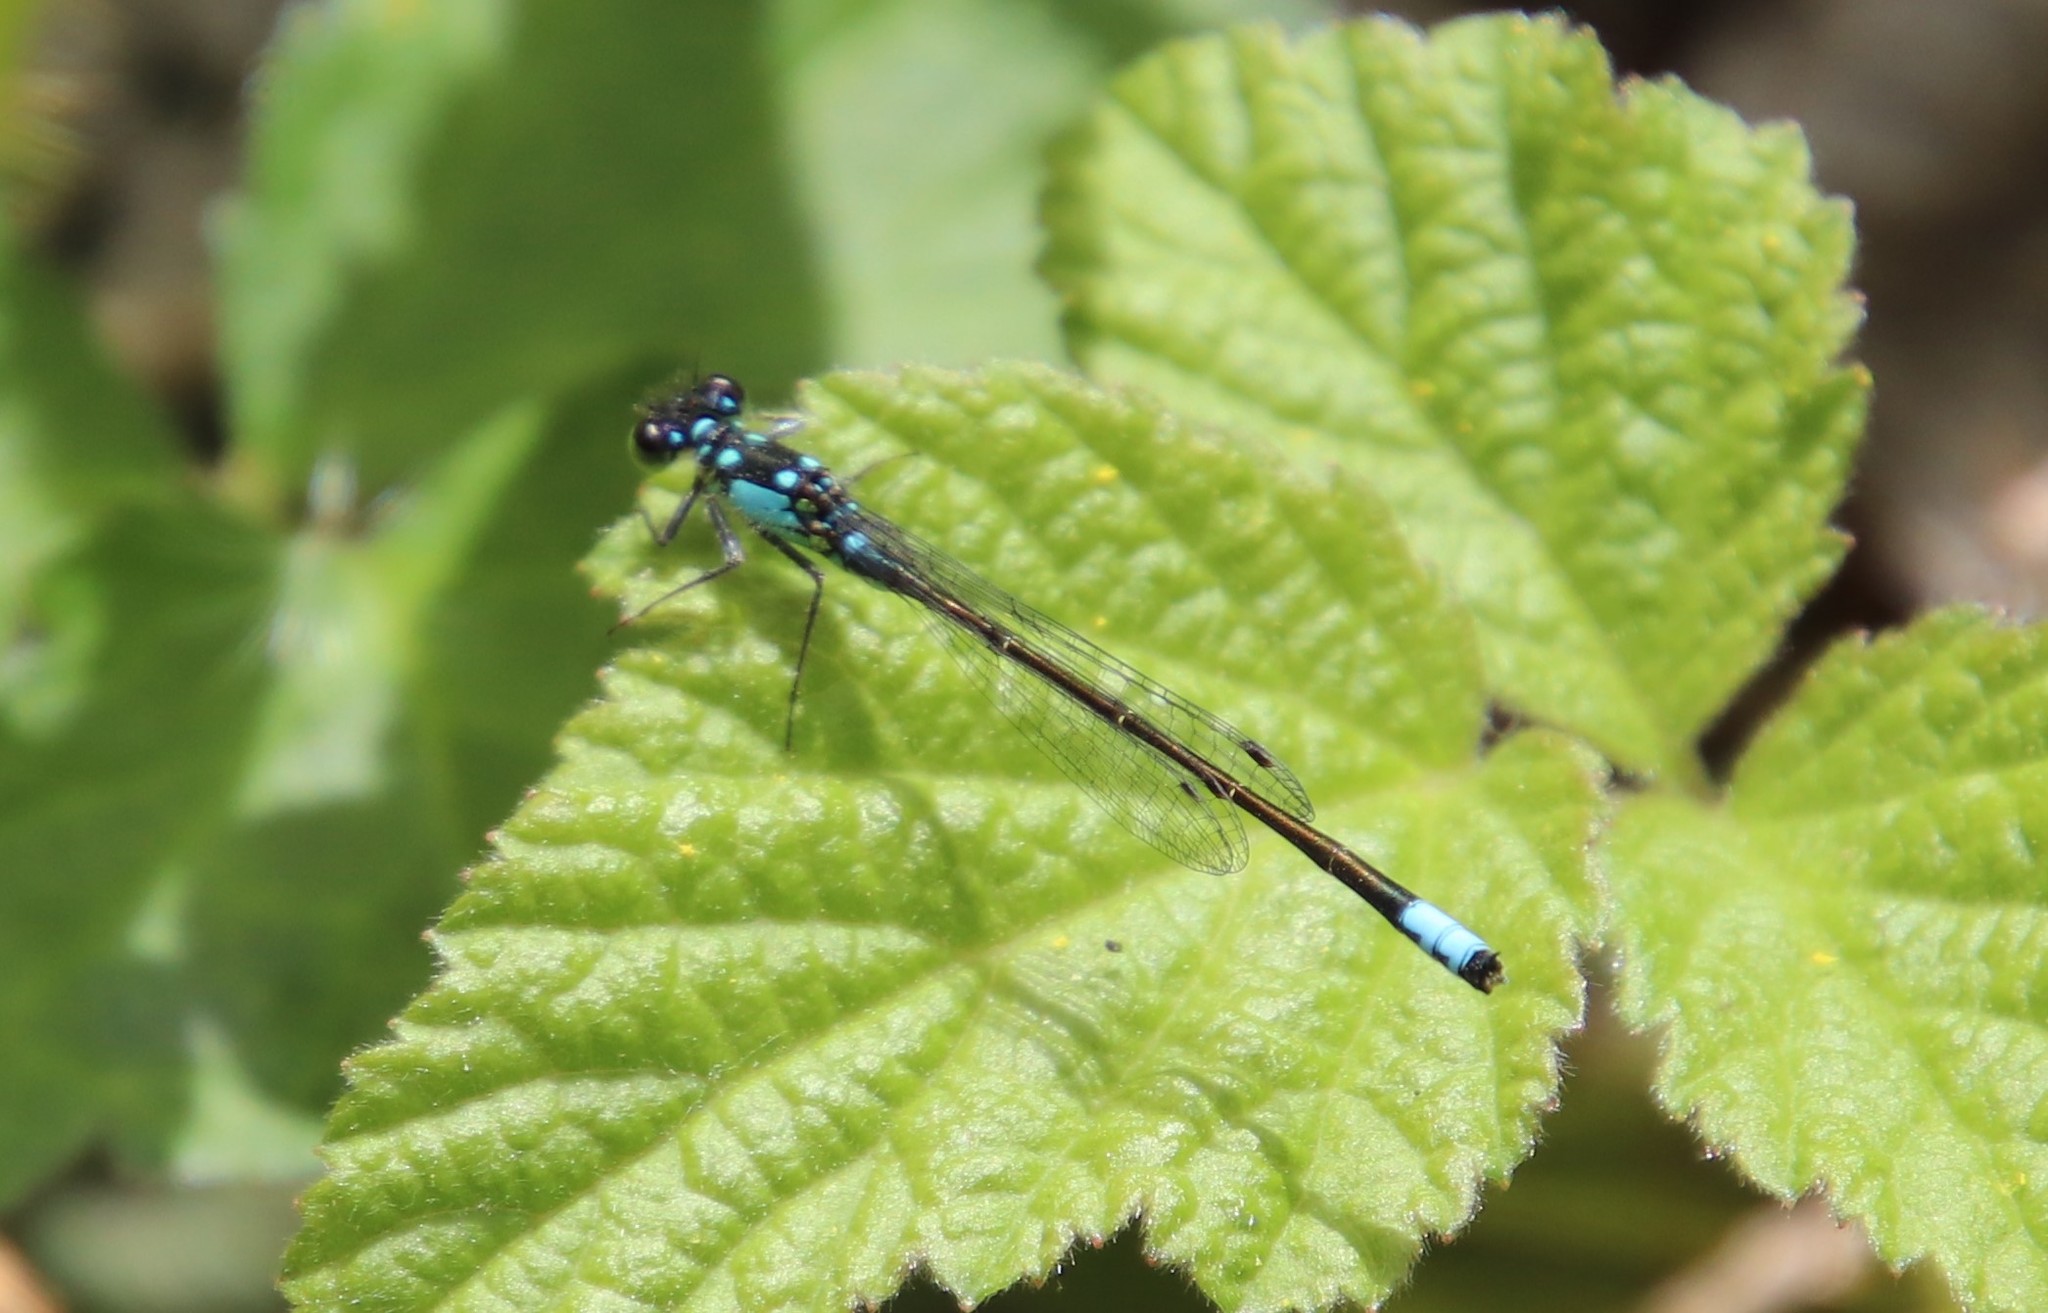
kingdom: Animalia
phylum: Arthropoda
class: Insecta
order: Odonata
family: Coenagrionidae
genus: Ischnura
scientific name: Ischnura cervula
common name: Pacific forktail
